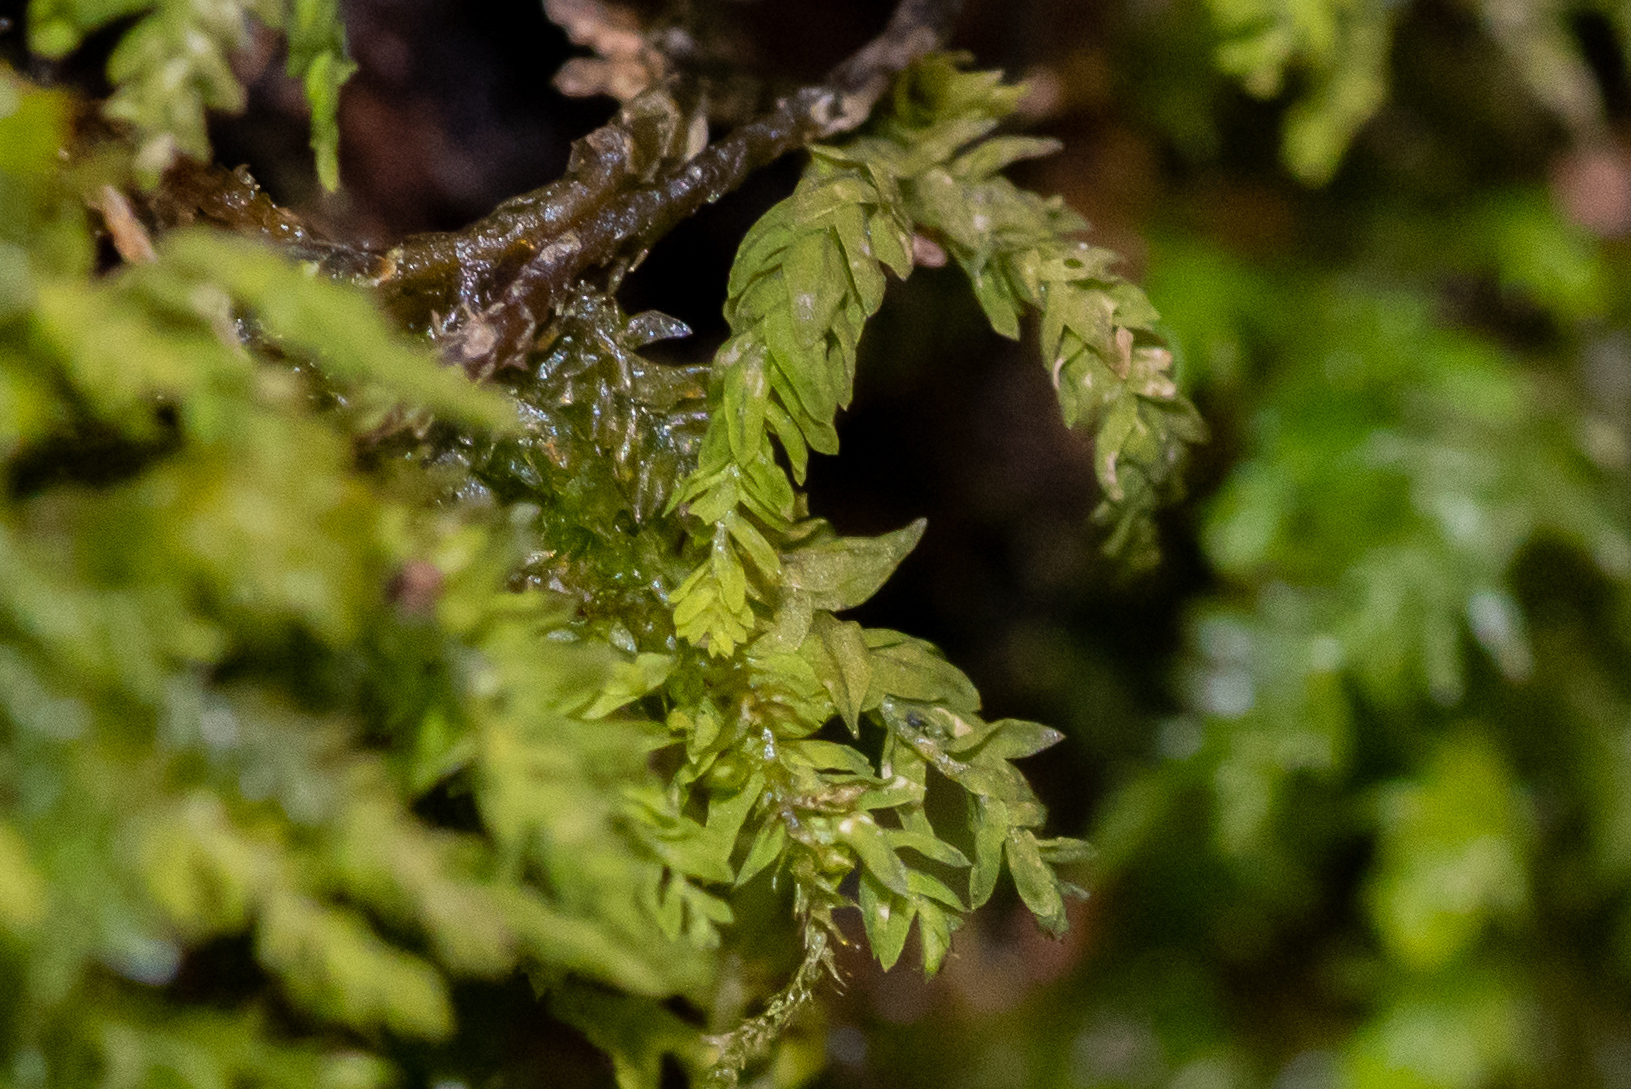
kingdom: Plantae
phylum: Bryophyta
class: Bryopsida
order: Hypnales
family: Neckeraceae
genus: Pseudanomodon
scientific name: Pseudanomodon attenuatus
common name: Tree-skirt moss
